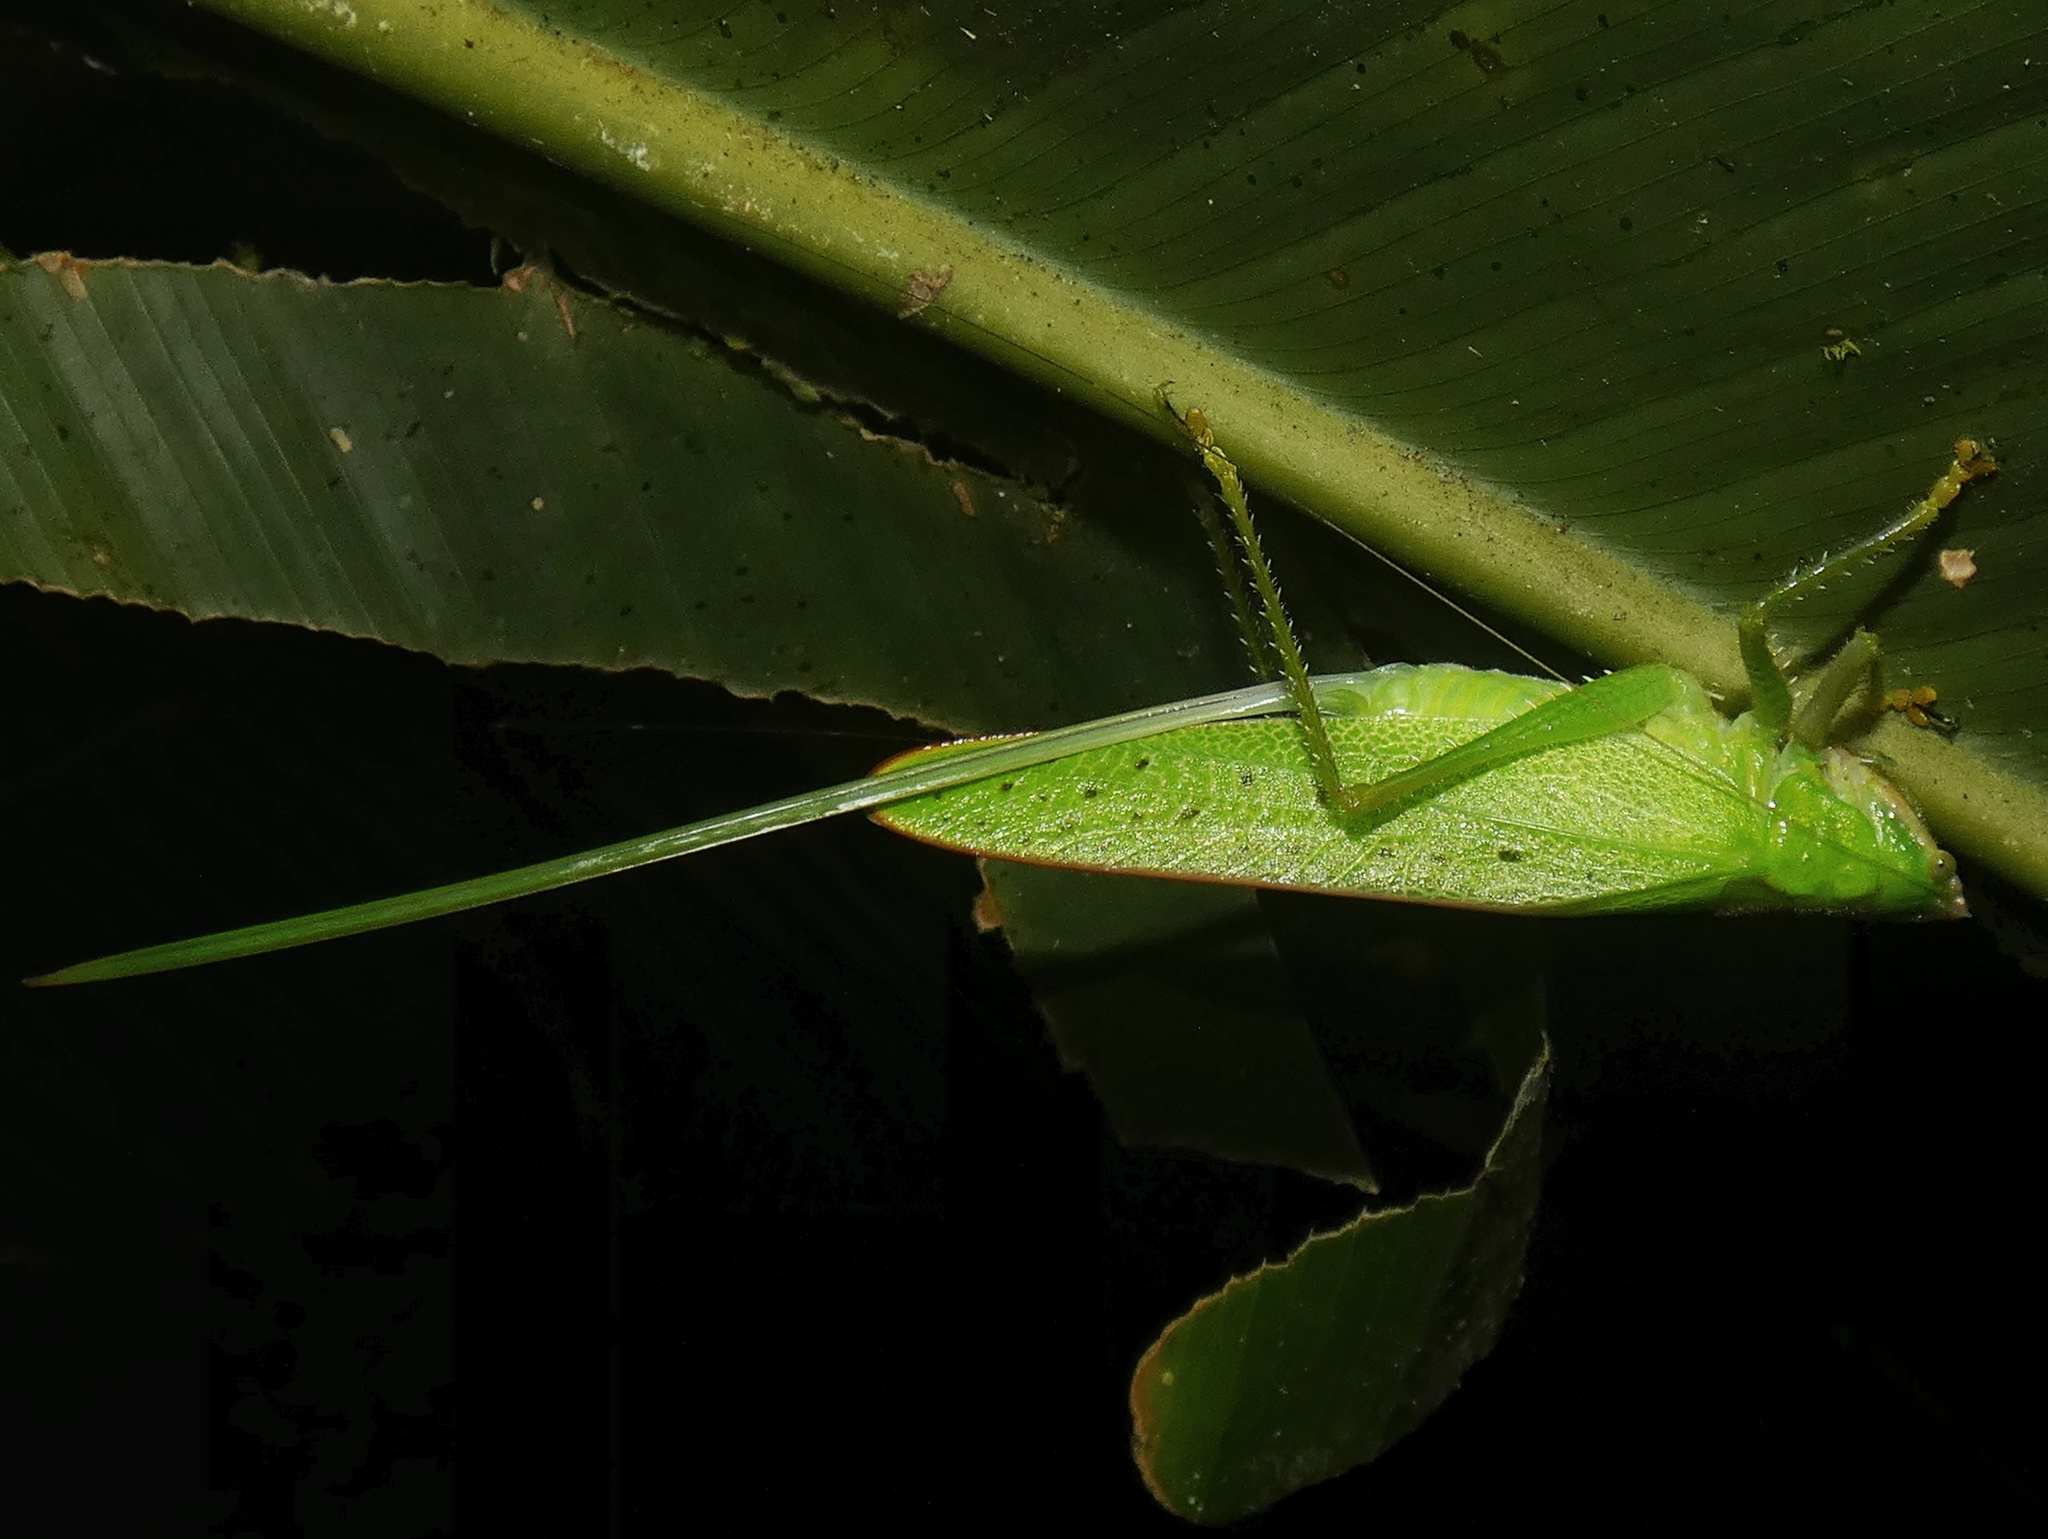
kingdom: Animalia
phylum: Arthropoda
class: Insecta
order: Orthoptera
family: Tettigoniidae
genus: Copiphora
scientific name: Copiphora brevirostris
